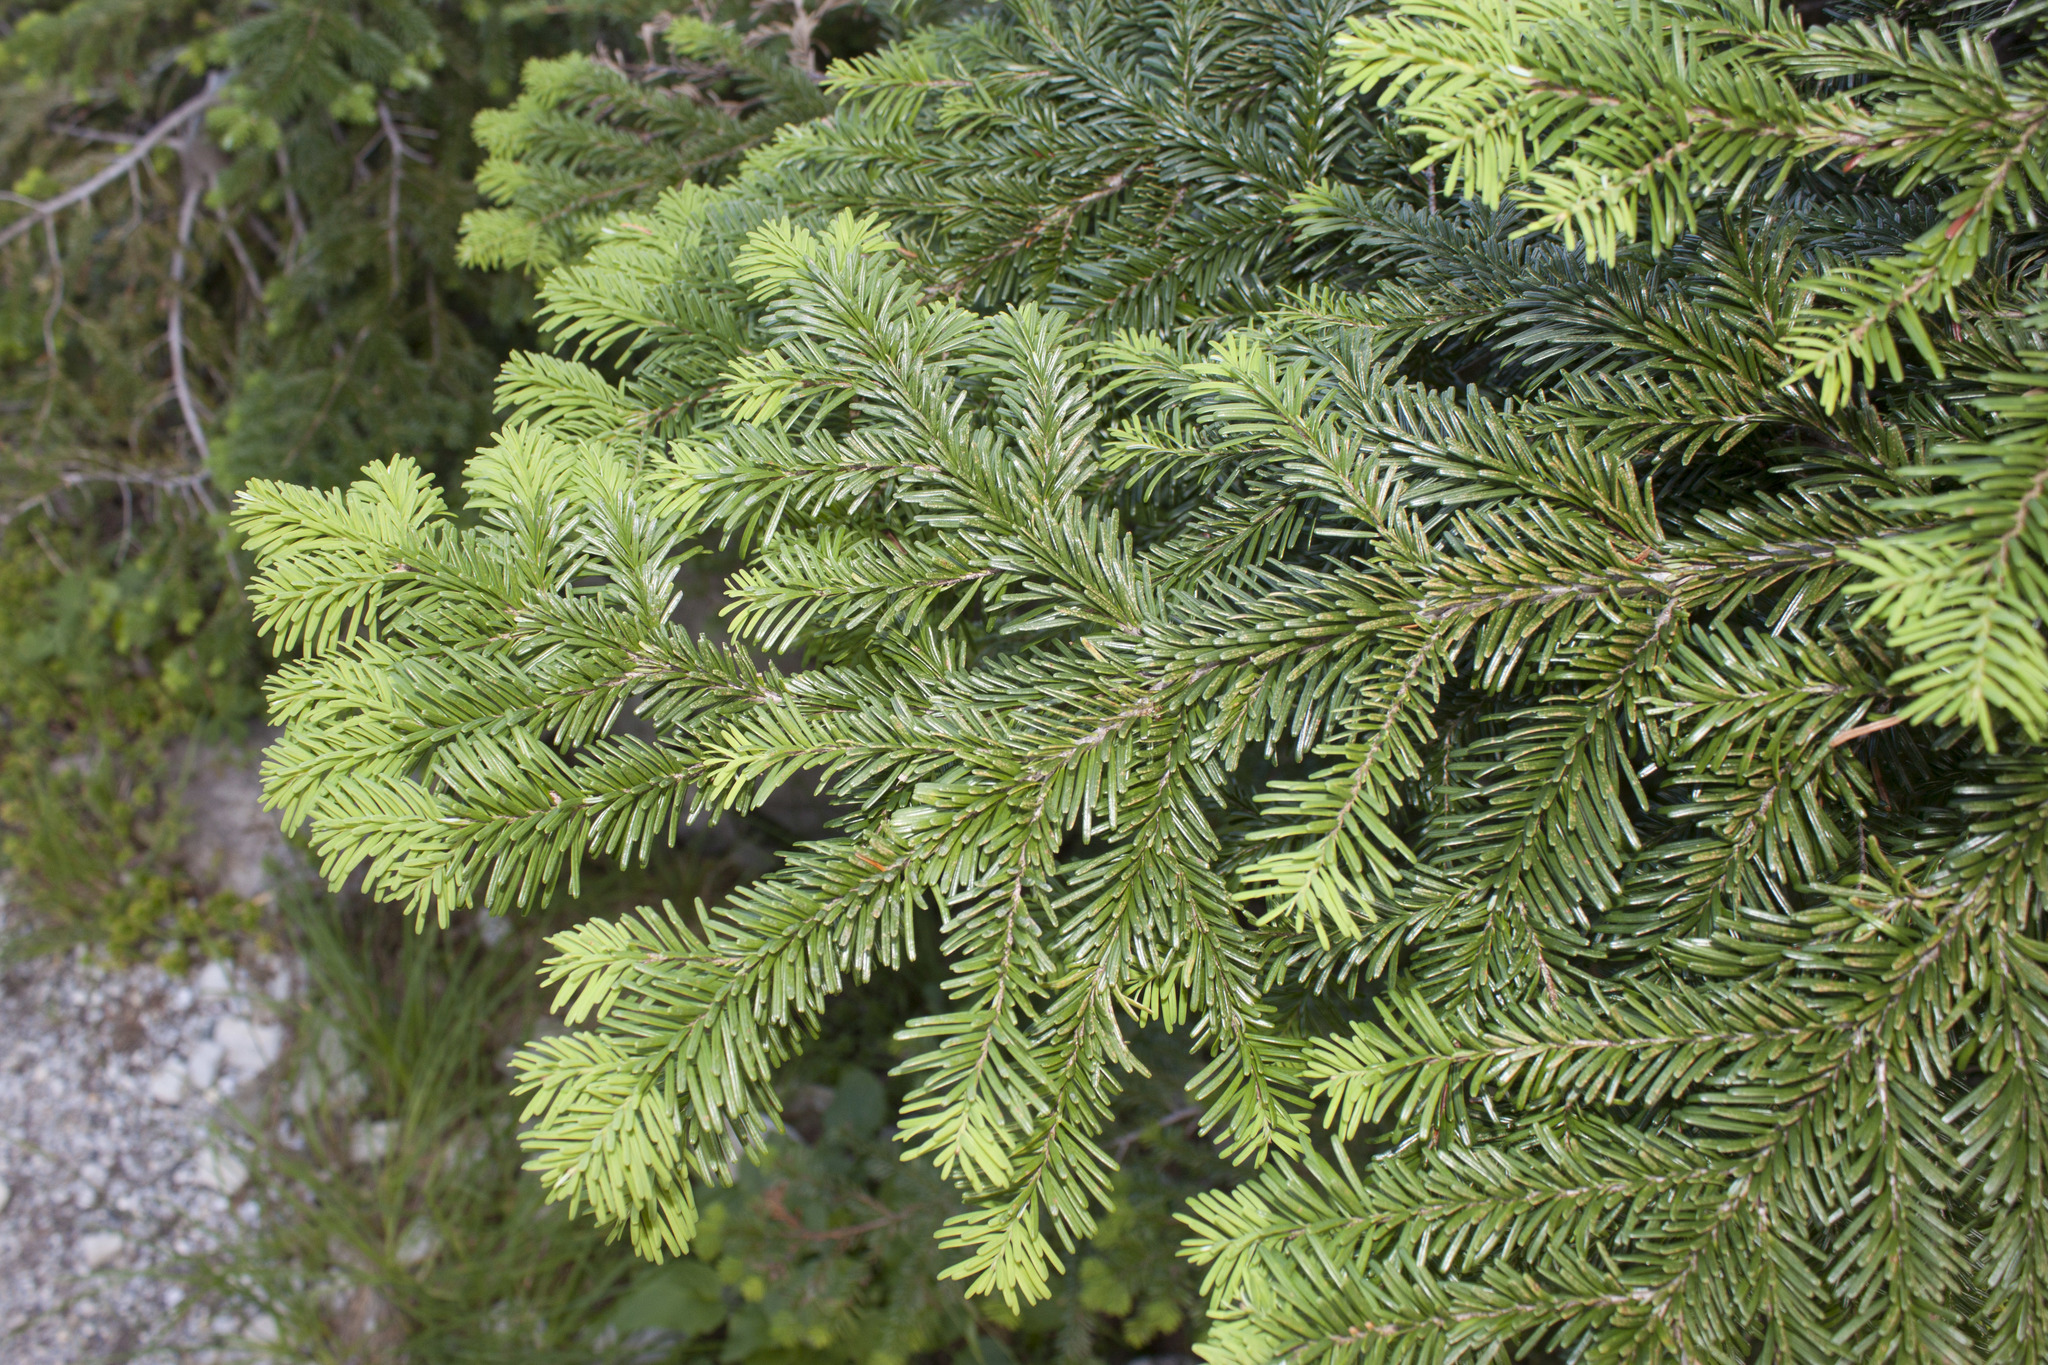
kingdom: Plantae
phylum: Tracheophyta
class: Pinopsida
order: Pinales
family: Pinaceae
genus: Abies
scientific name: Abies amabilis
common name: Pacific silver fir
